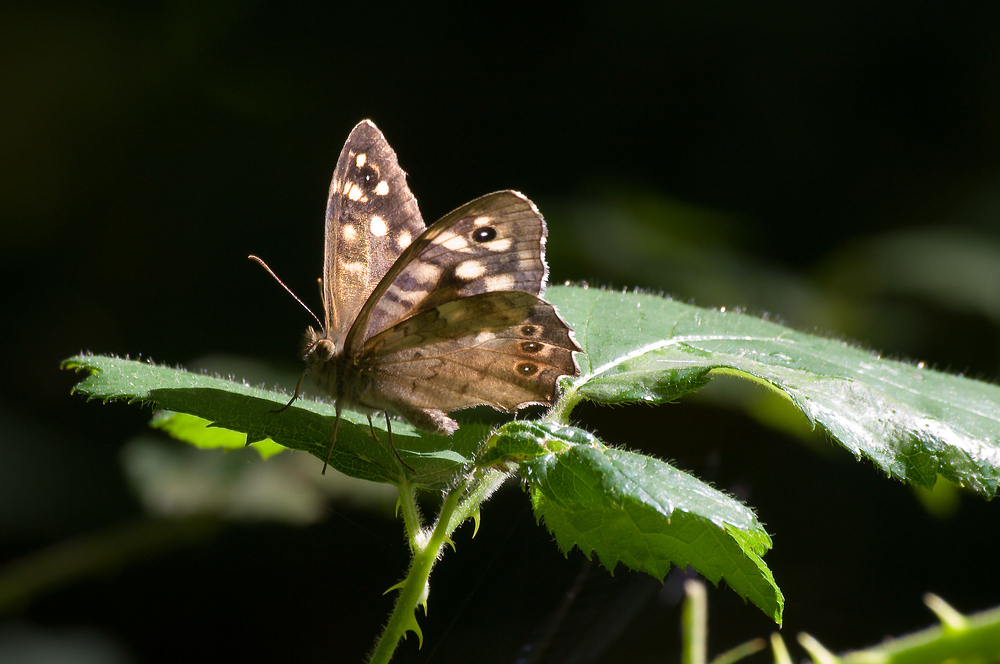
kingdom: Animalia
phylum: Arthropoda
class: Insecta
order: Lepidoptera
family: Nymphalidae
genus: Pararge
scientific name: Pararge aegeria
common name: Speckled wood
